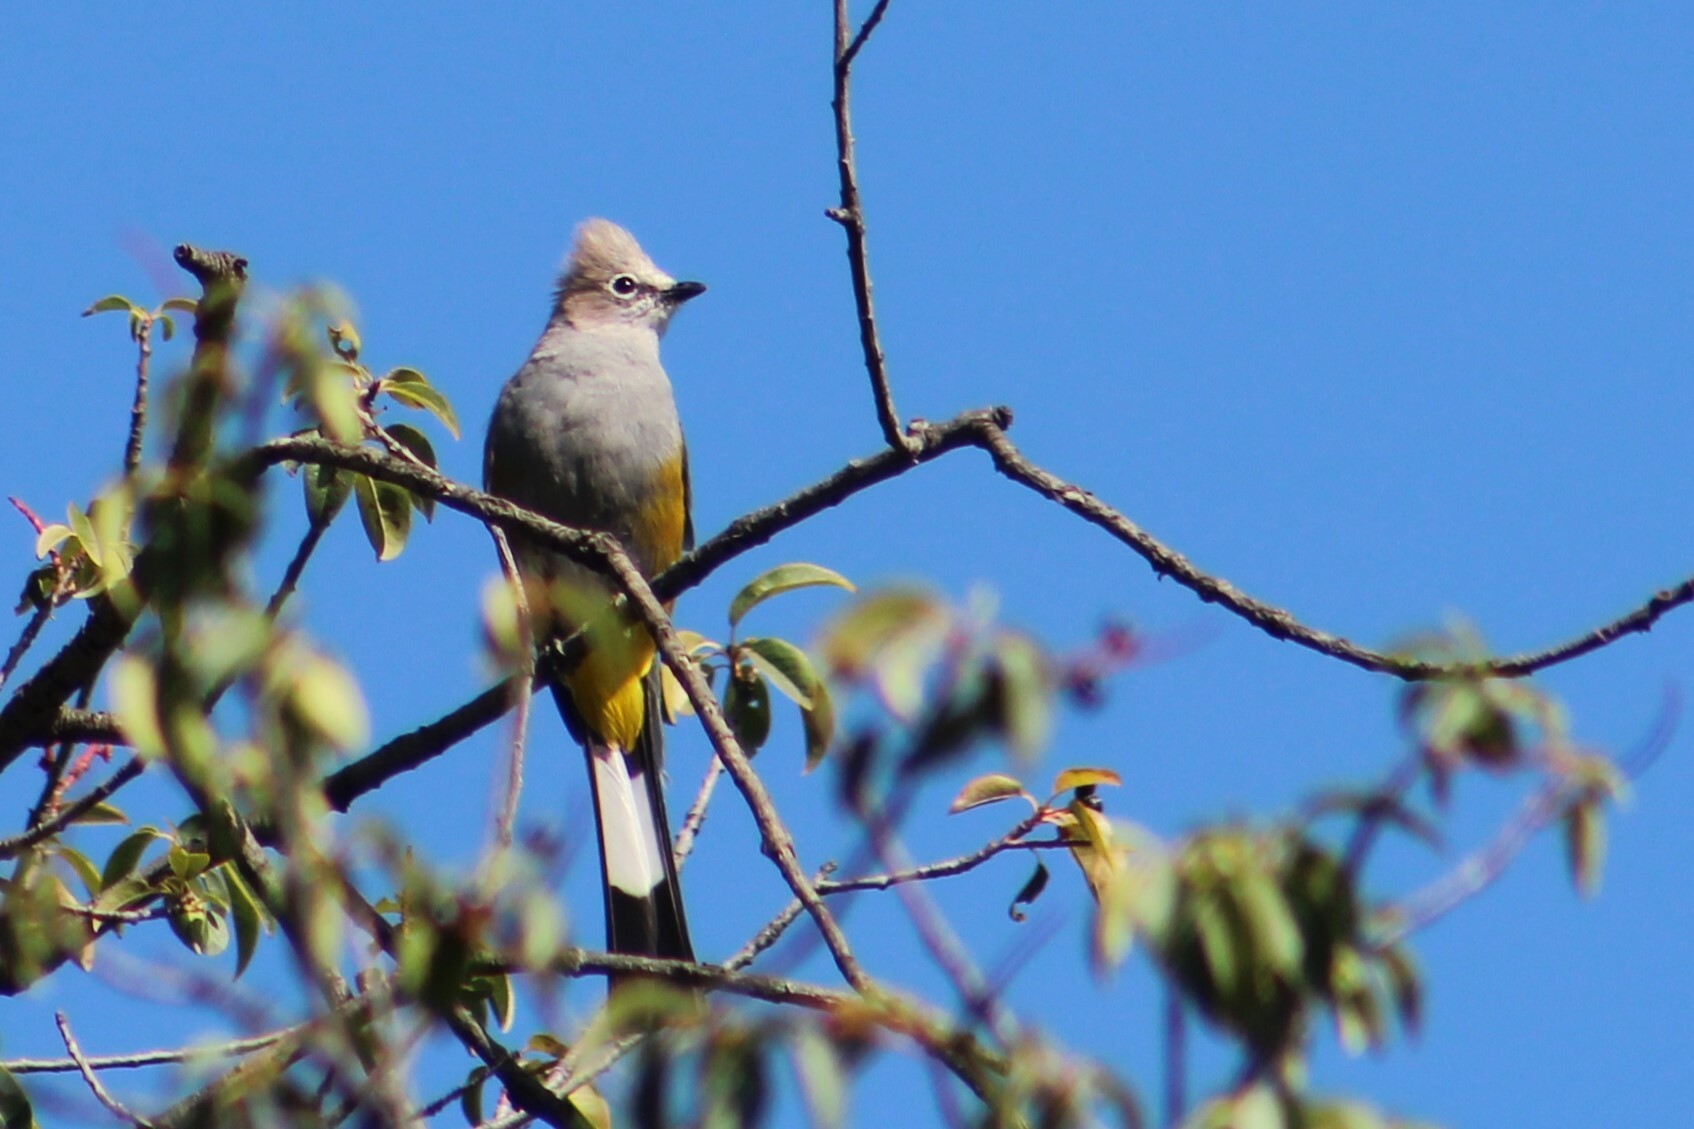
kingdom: Animalia
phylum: Chordata
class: Aves
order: Passeriformes
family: Ptilogonatidae
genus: Ptilogonys
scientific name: Ptilogonys cinereus
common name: Gray silky-flycatcher
